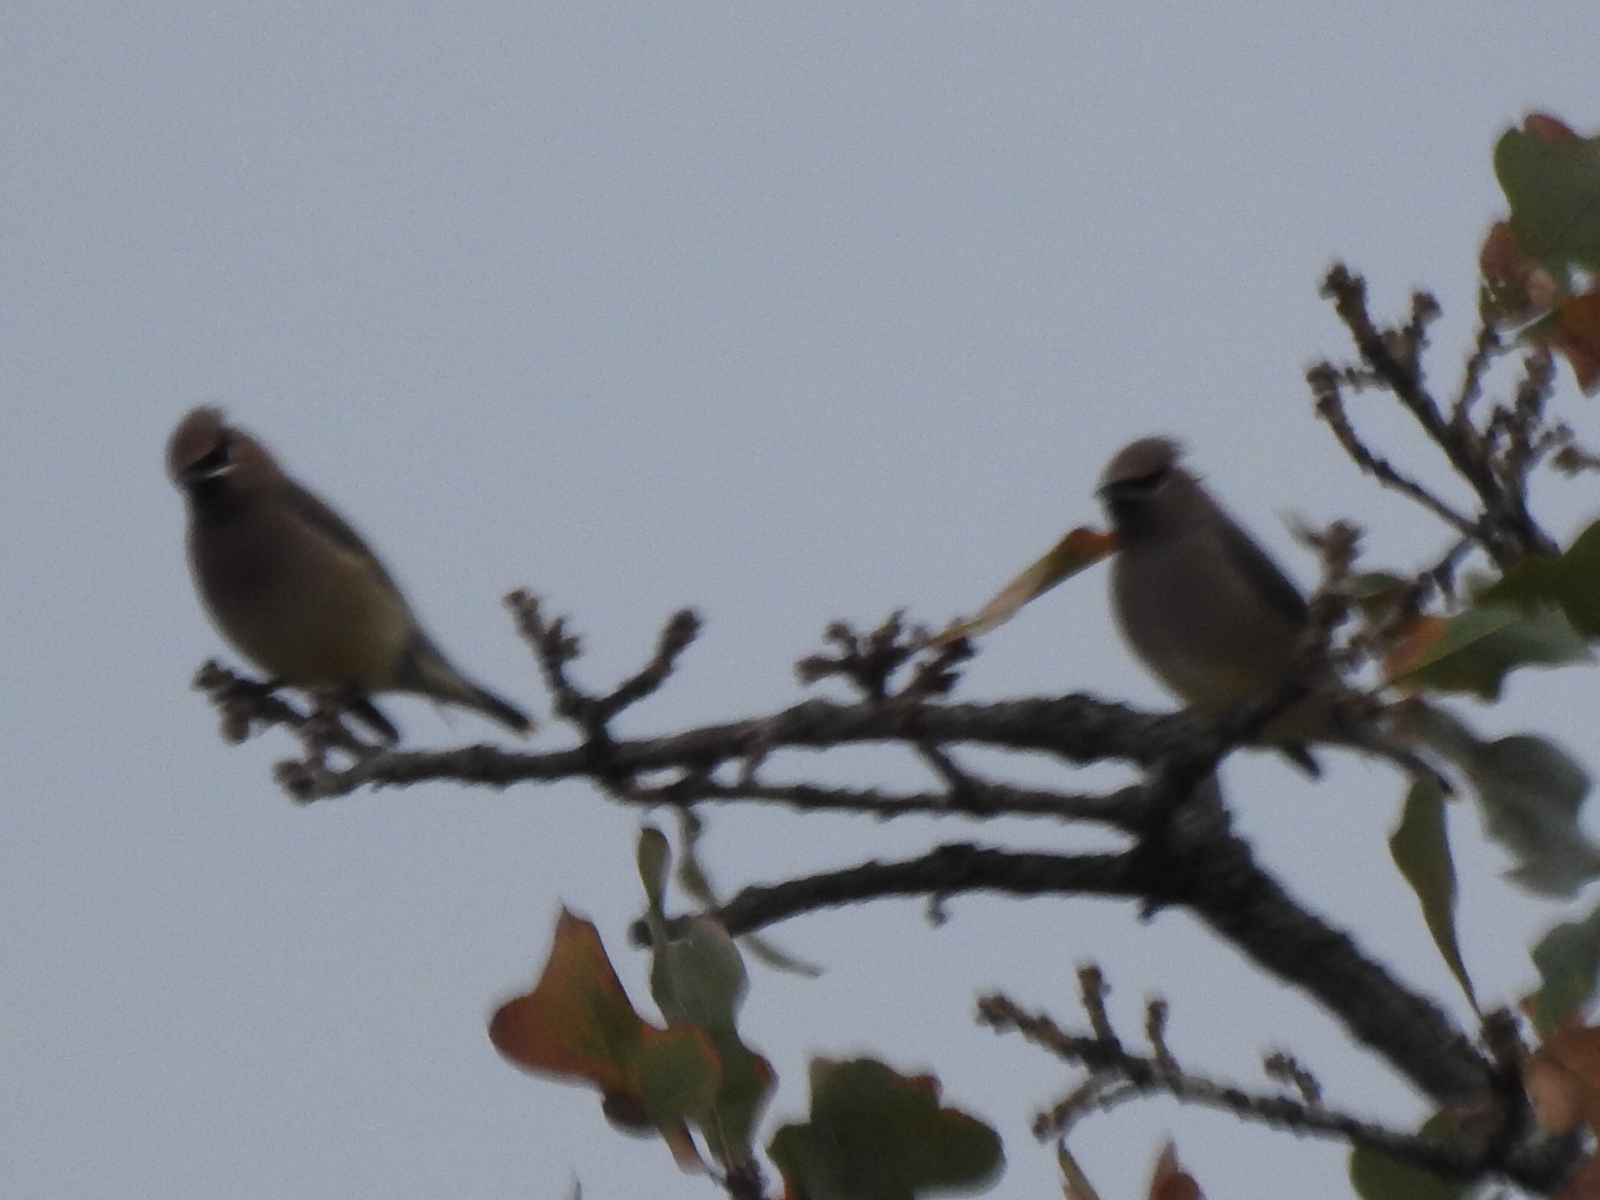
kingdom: Animalia
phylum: Chordata
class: Aves
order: Passeriformes
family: Bombycillidae
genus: Bombycilla
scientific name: Bombycilla cedrorum
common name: Cedar waxwing
